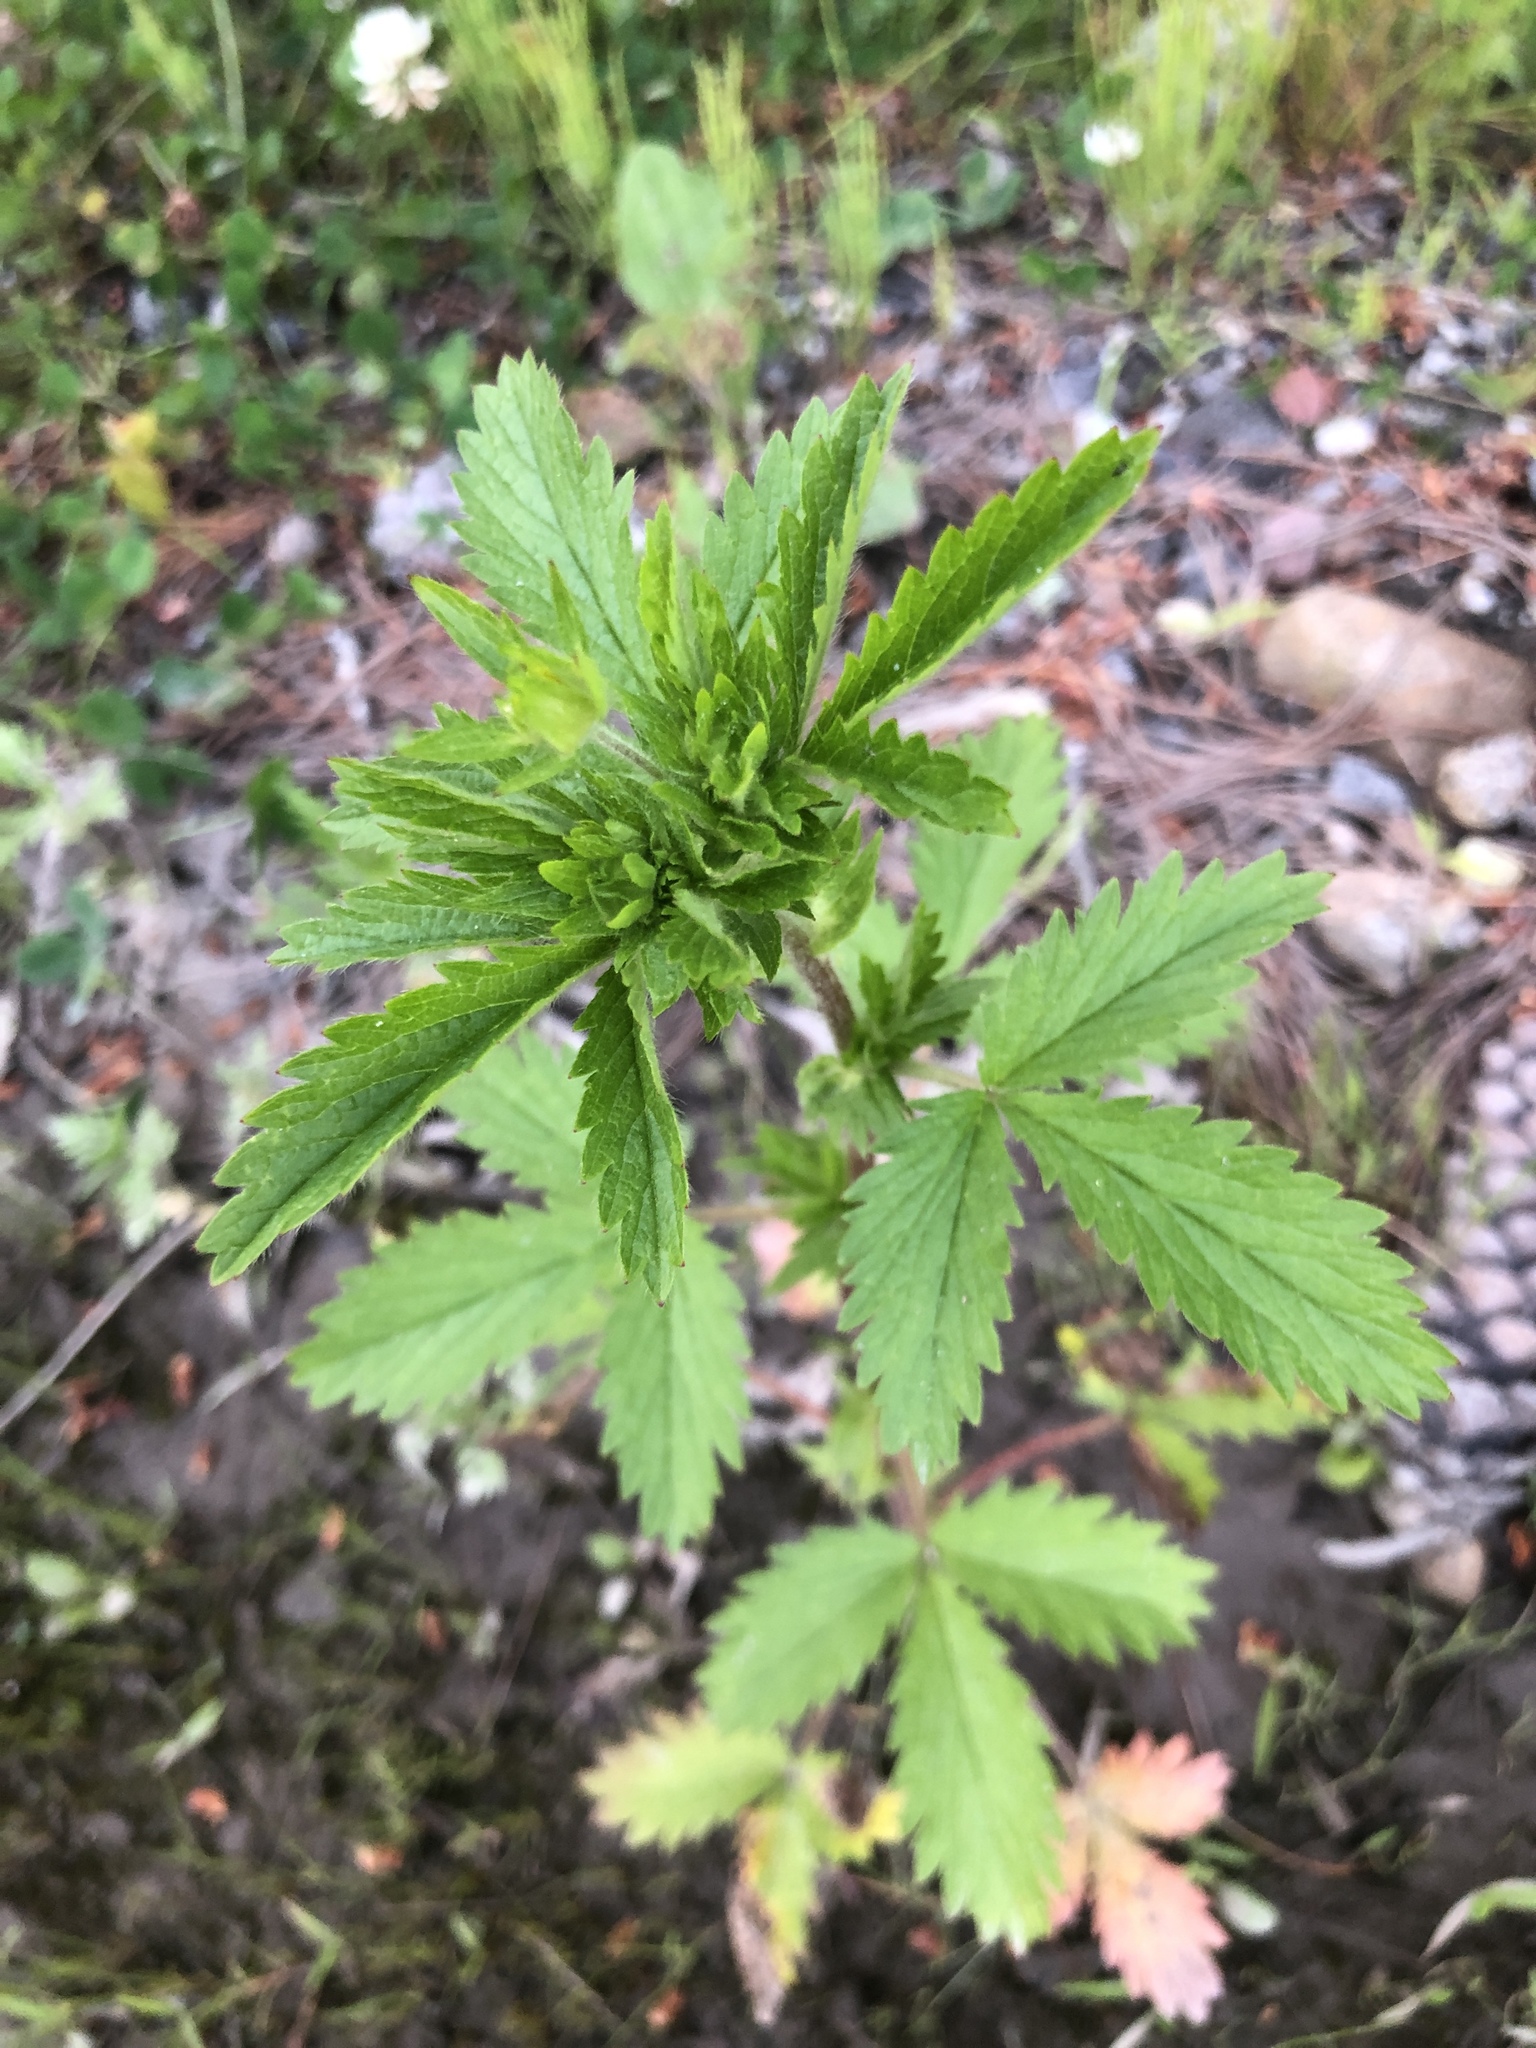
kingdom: Plantae
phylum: Tracheophyta
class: Magnoliopsida
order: Rosales
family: Rosaceae
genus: Potentilla
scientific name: Potentilla norvegica
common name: Ternate-leaved cinquefoil
